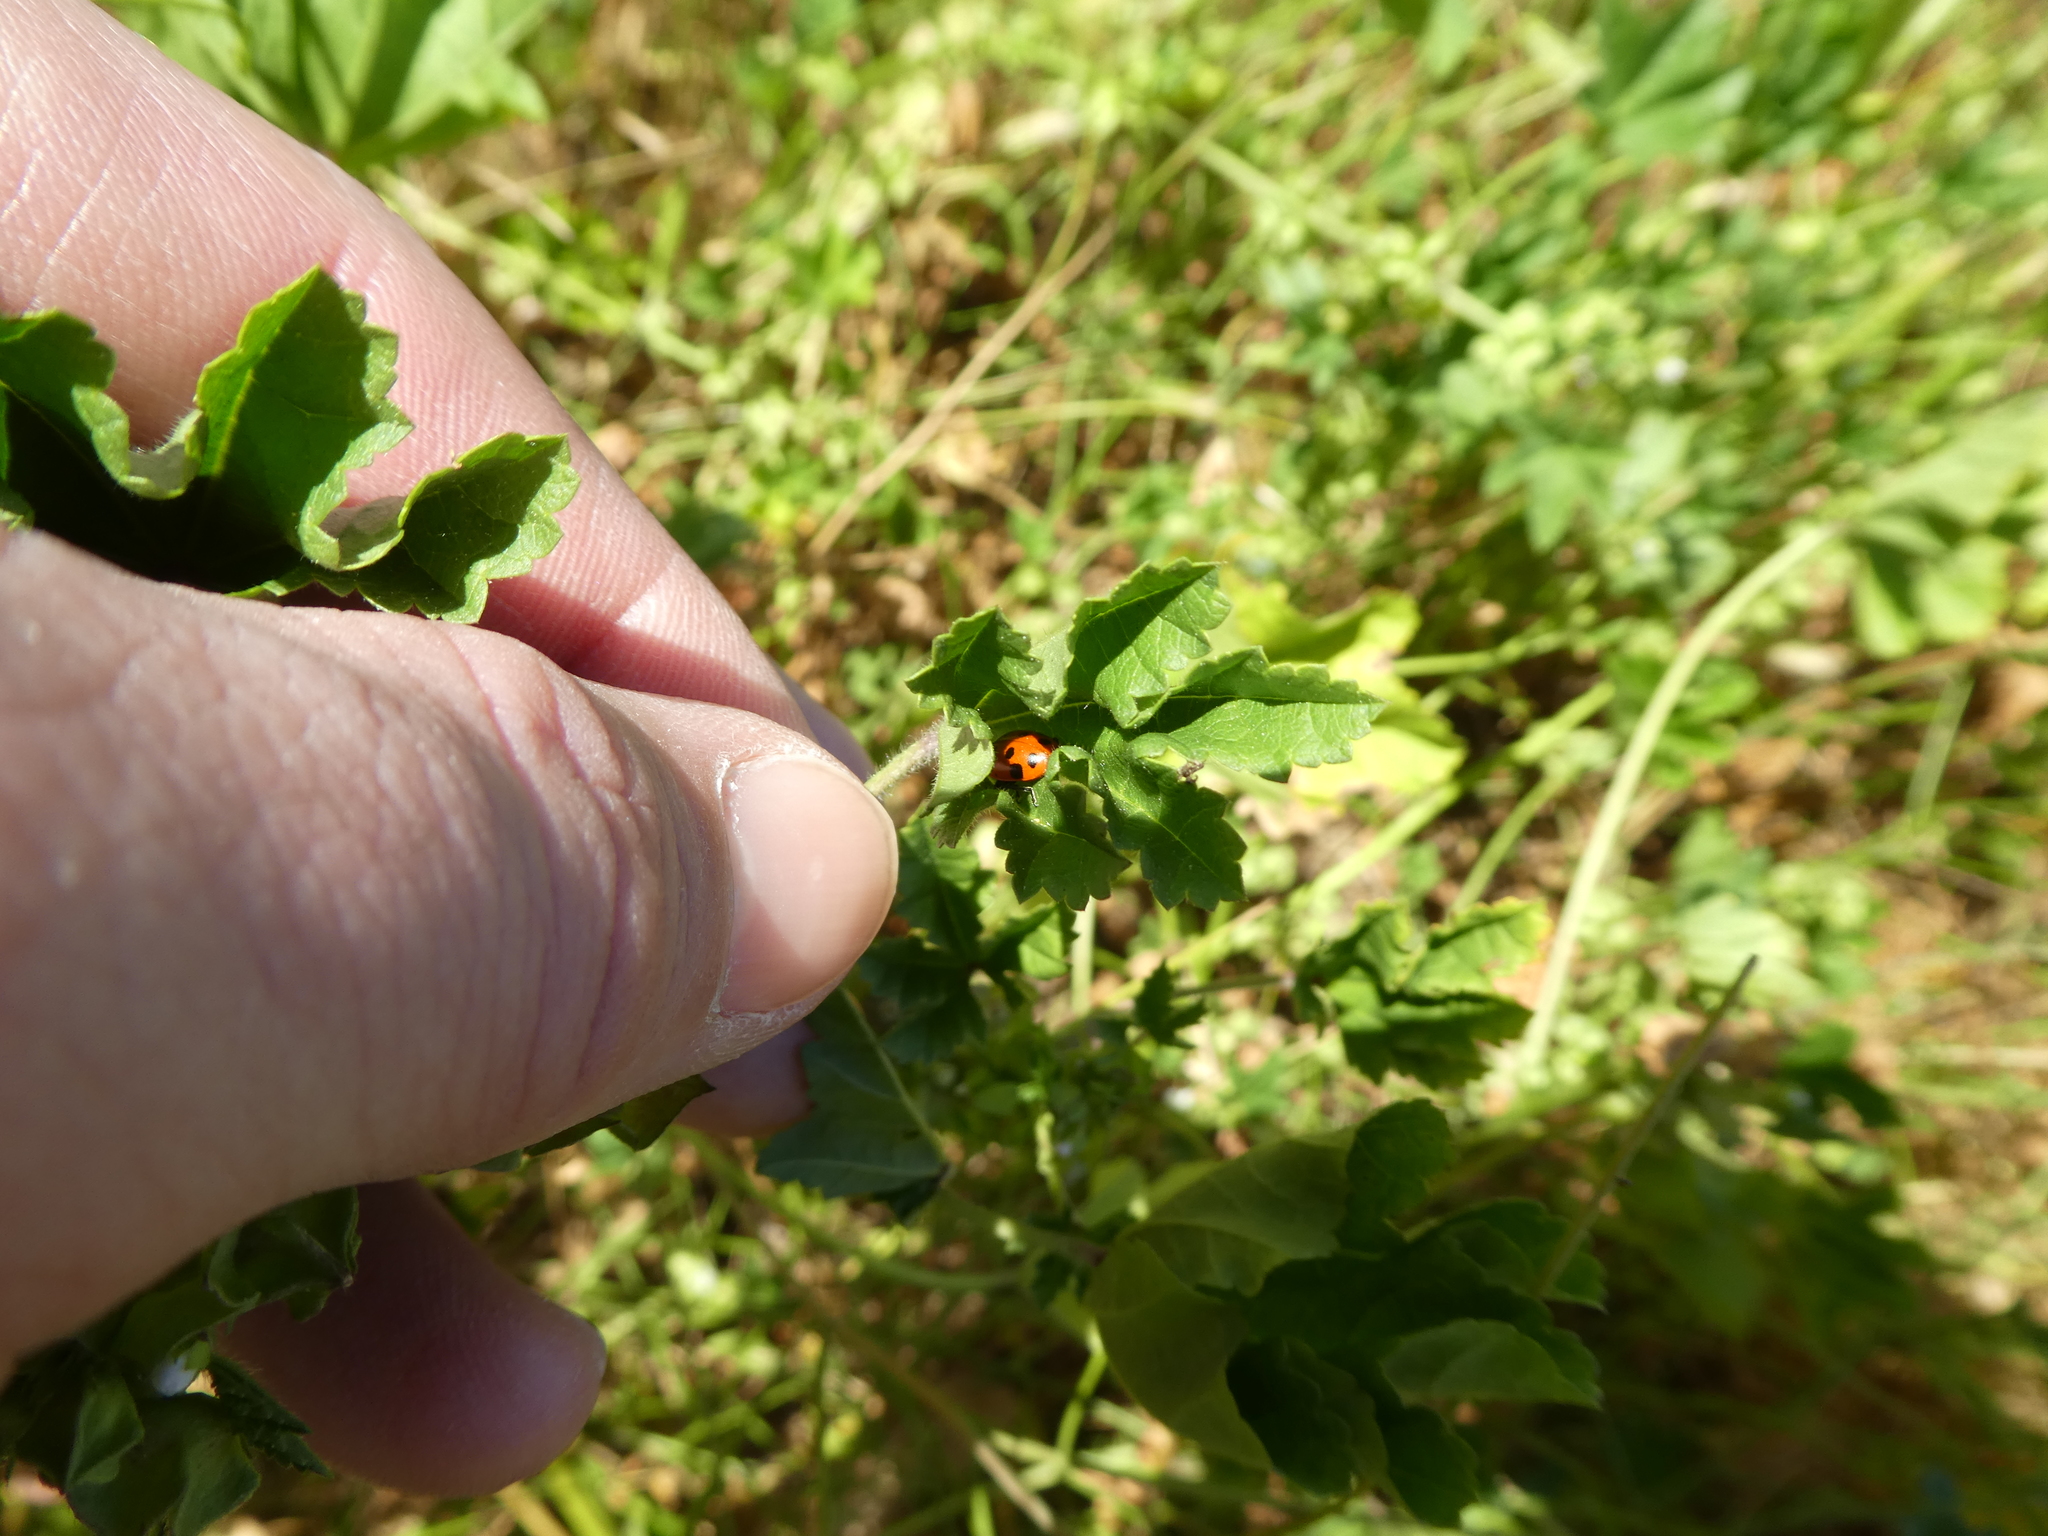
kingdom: Animalia
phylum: Arthropoda
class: Insecta
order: Coleoptera
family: Coccinellidae
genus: Hippodamia
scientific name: Hippodamia convergens
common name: Convergent lady beetle
